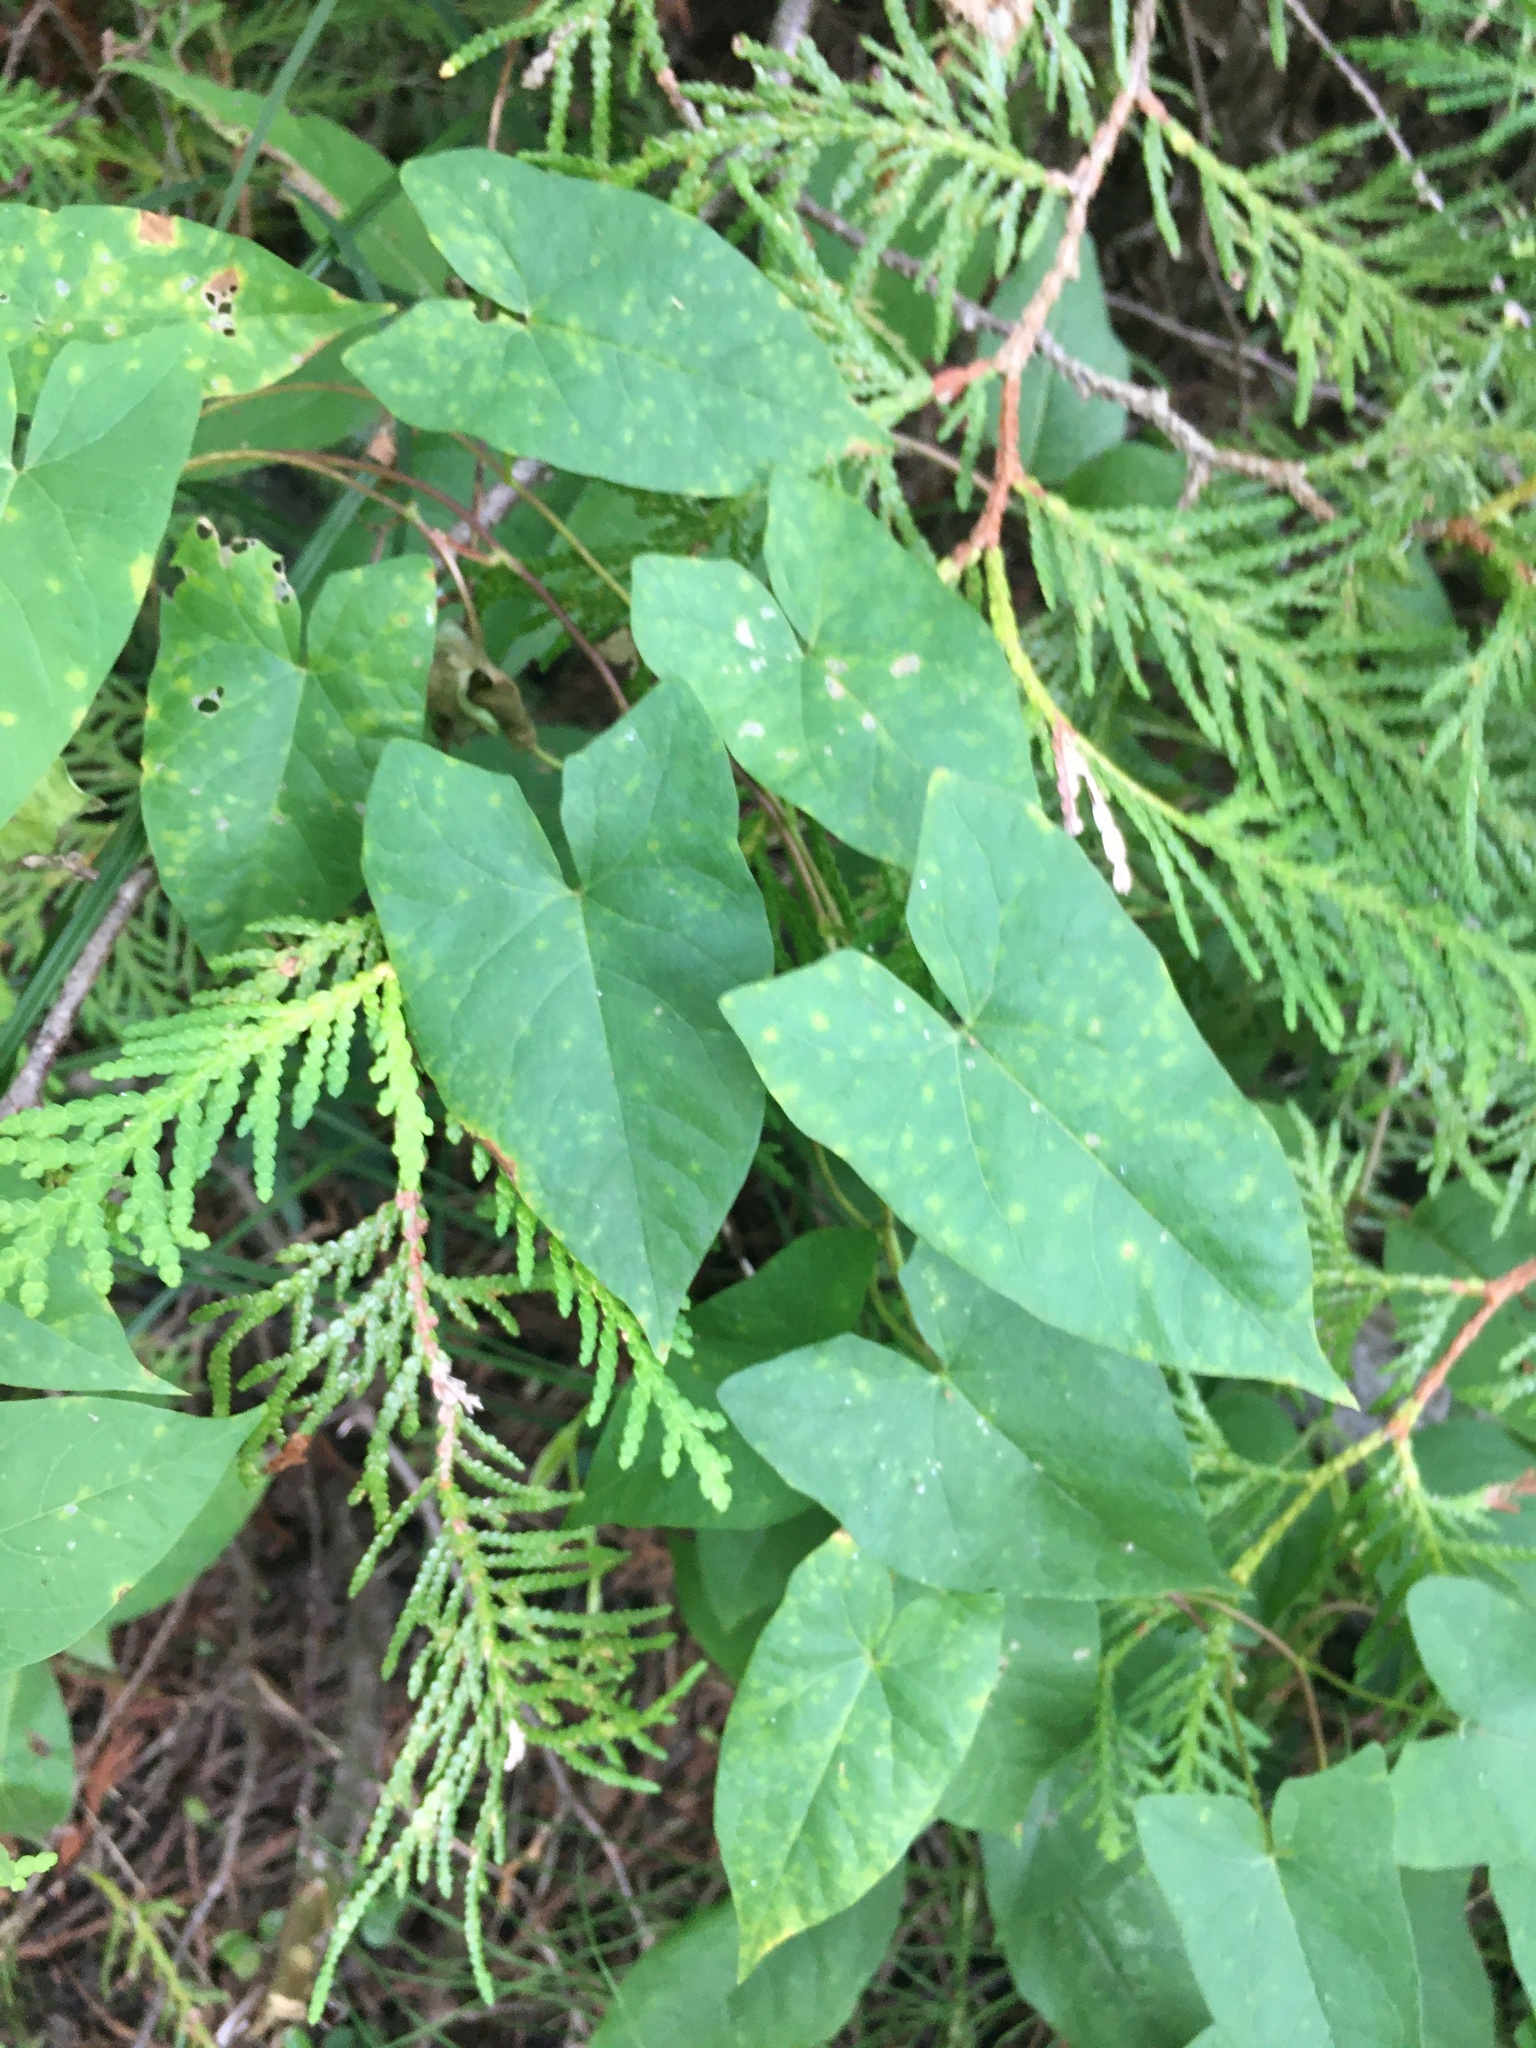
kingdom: Plantae
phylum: Tracheophyta
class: Magnoliopsida
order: Solanales
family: Convolvulaceae
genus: Calystegia
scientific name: Calystegia sepium
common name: Hedge bindweed
